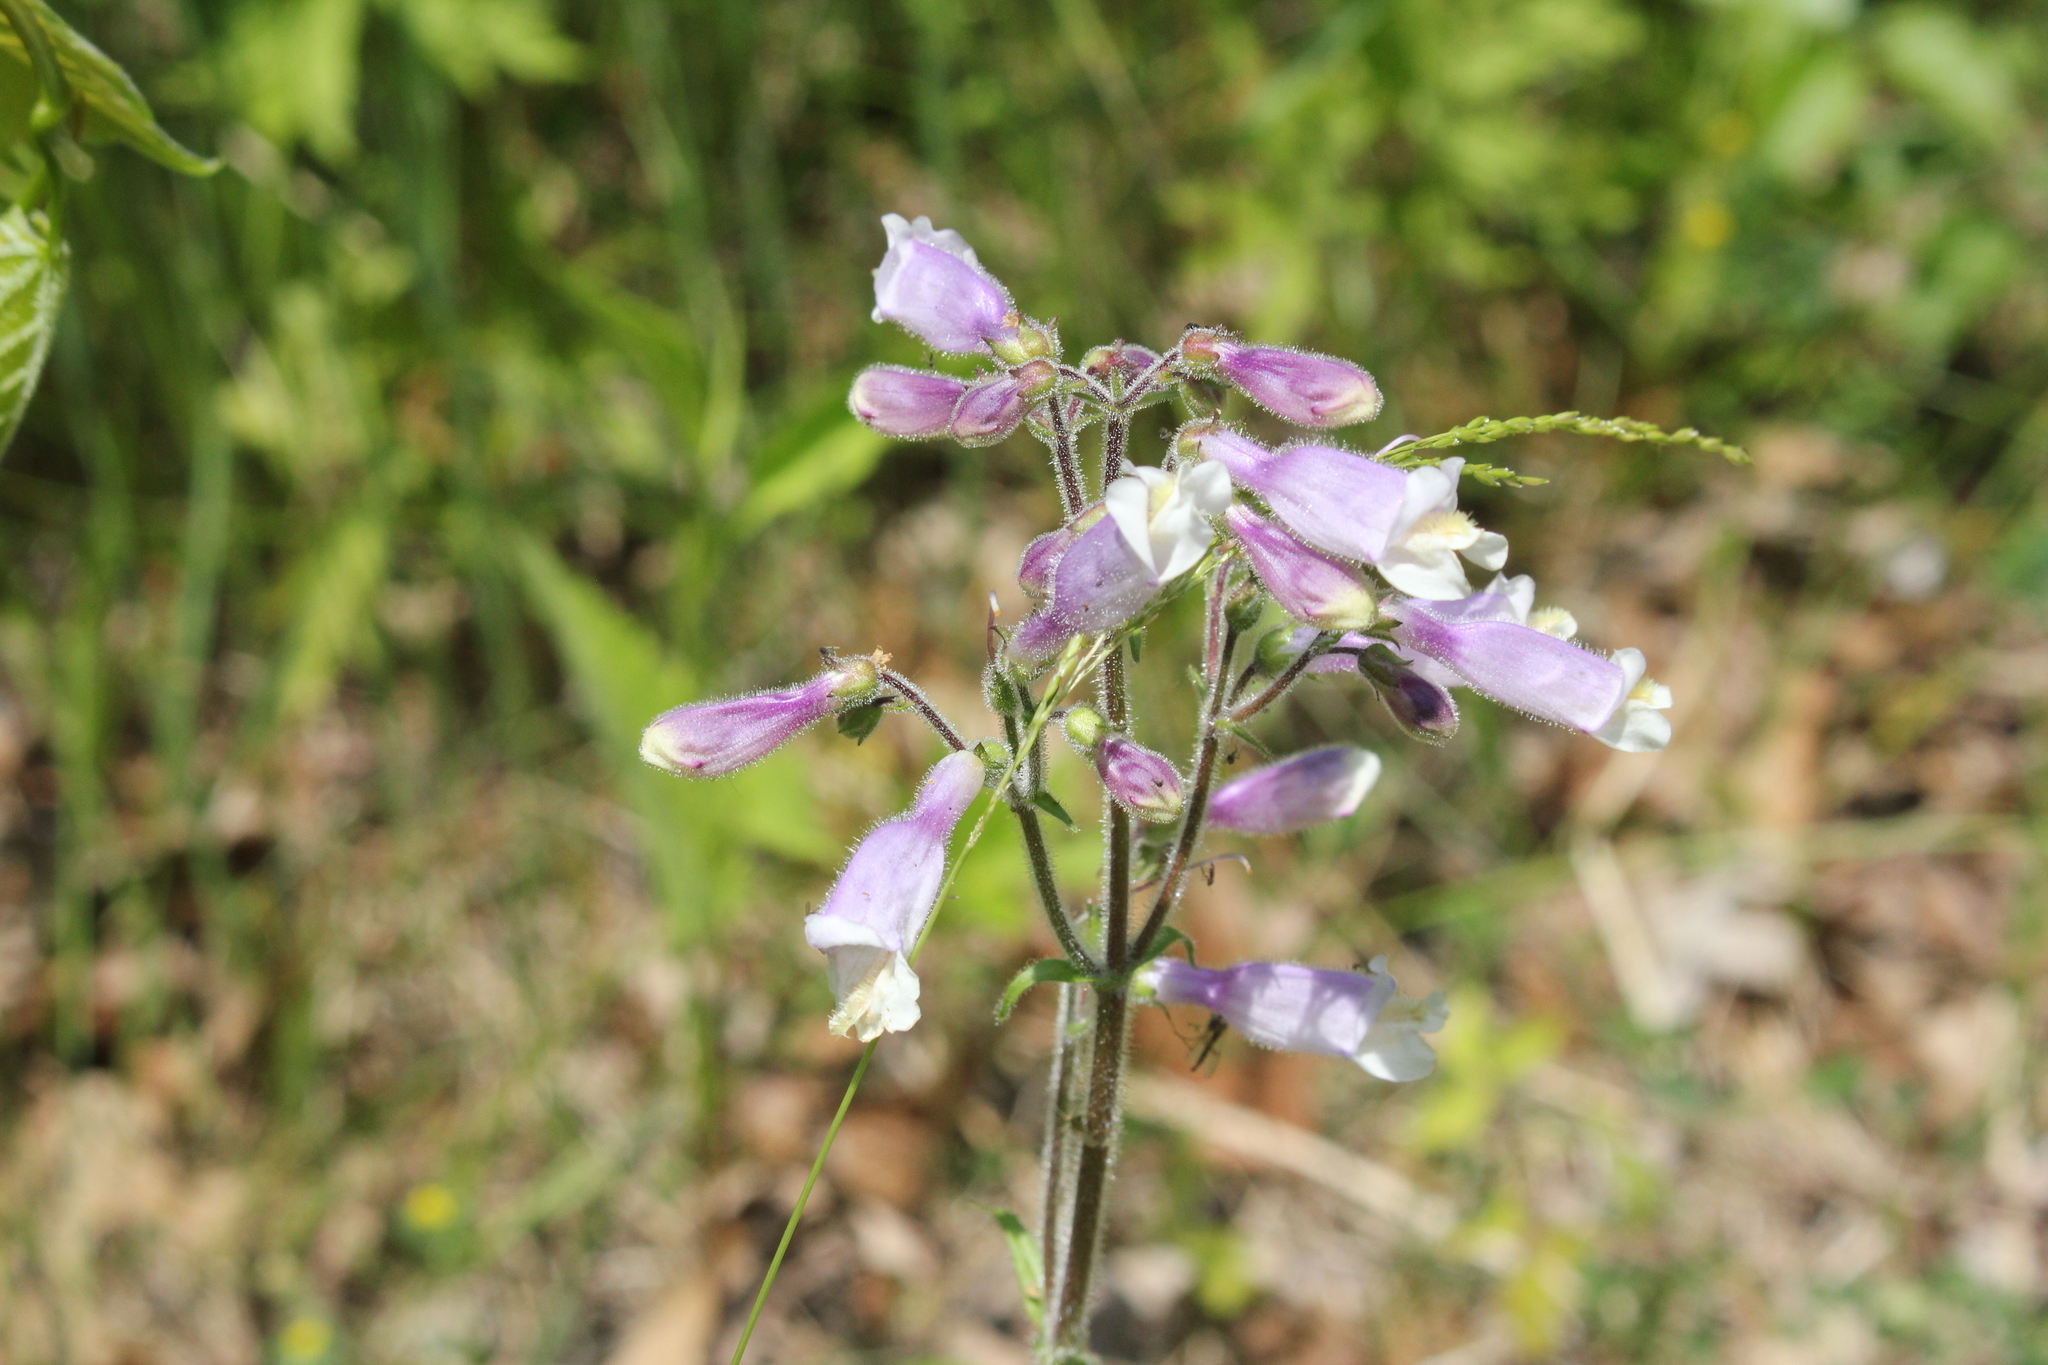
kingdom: Plantae
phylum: Tracheophyta
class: Magnoliopsida
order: Lamiales
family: Plantaginaceae
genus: Penstemon
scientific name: Penstemon hirsutus
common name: Hairy beardtongue
